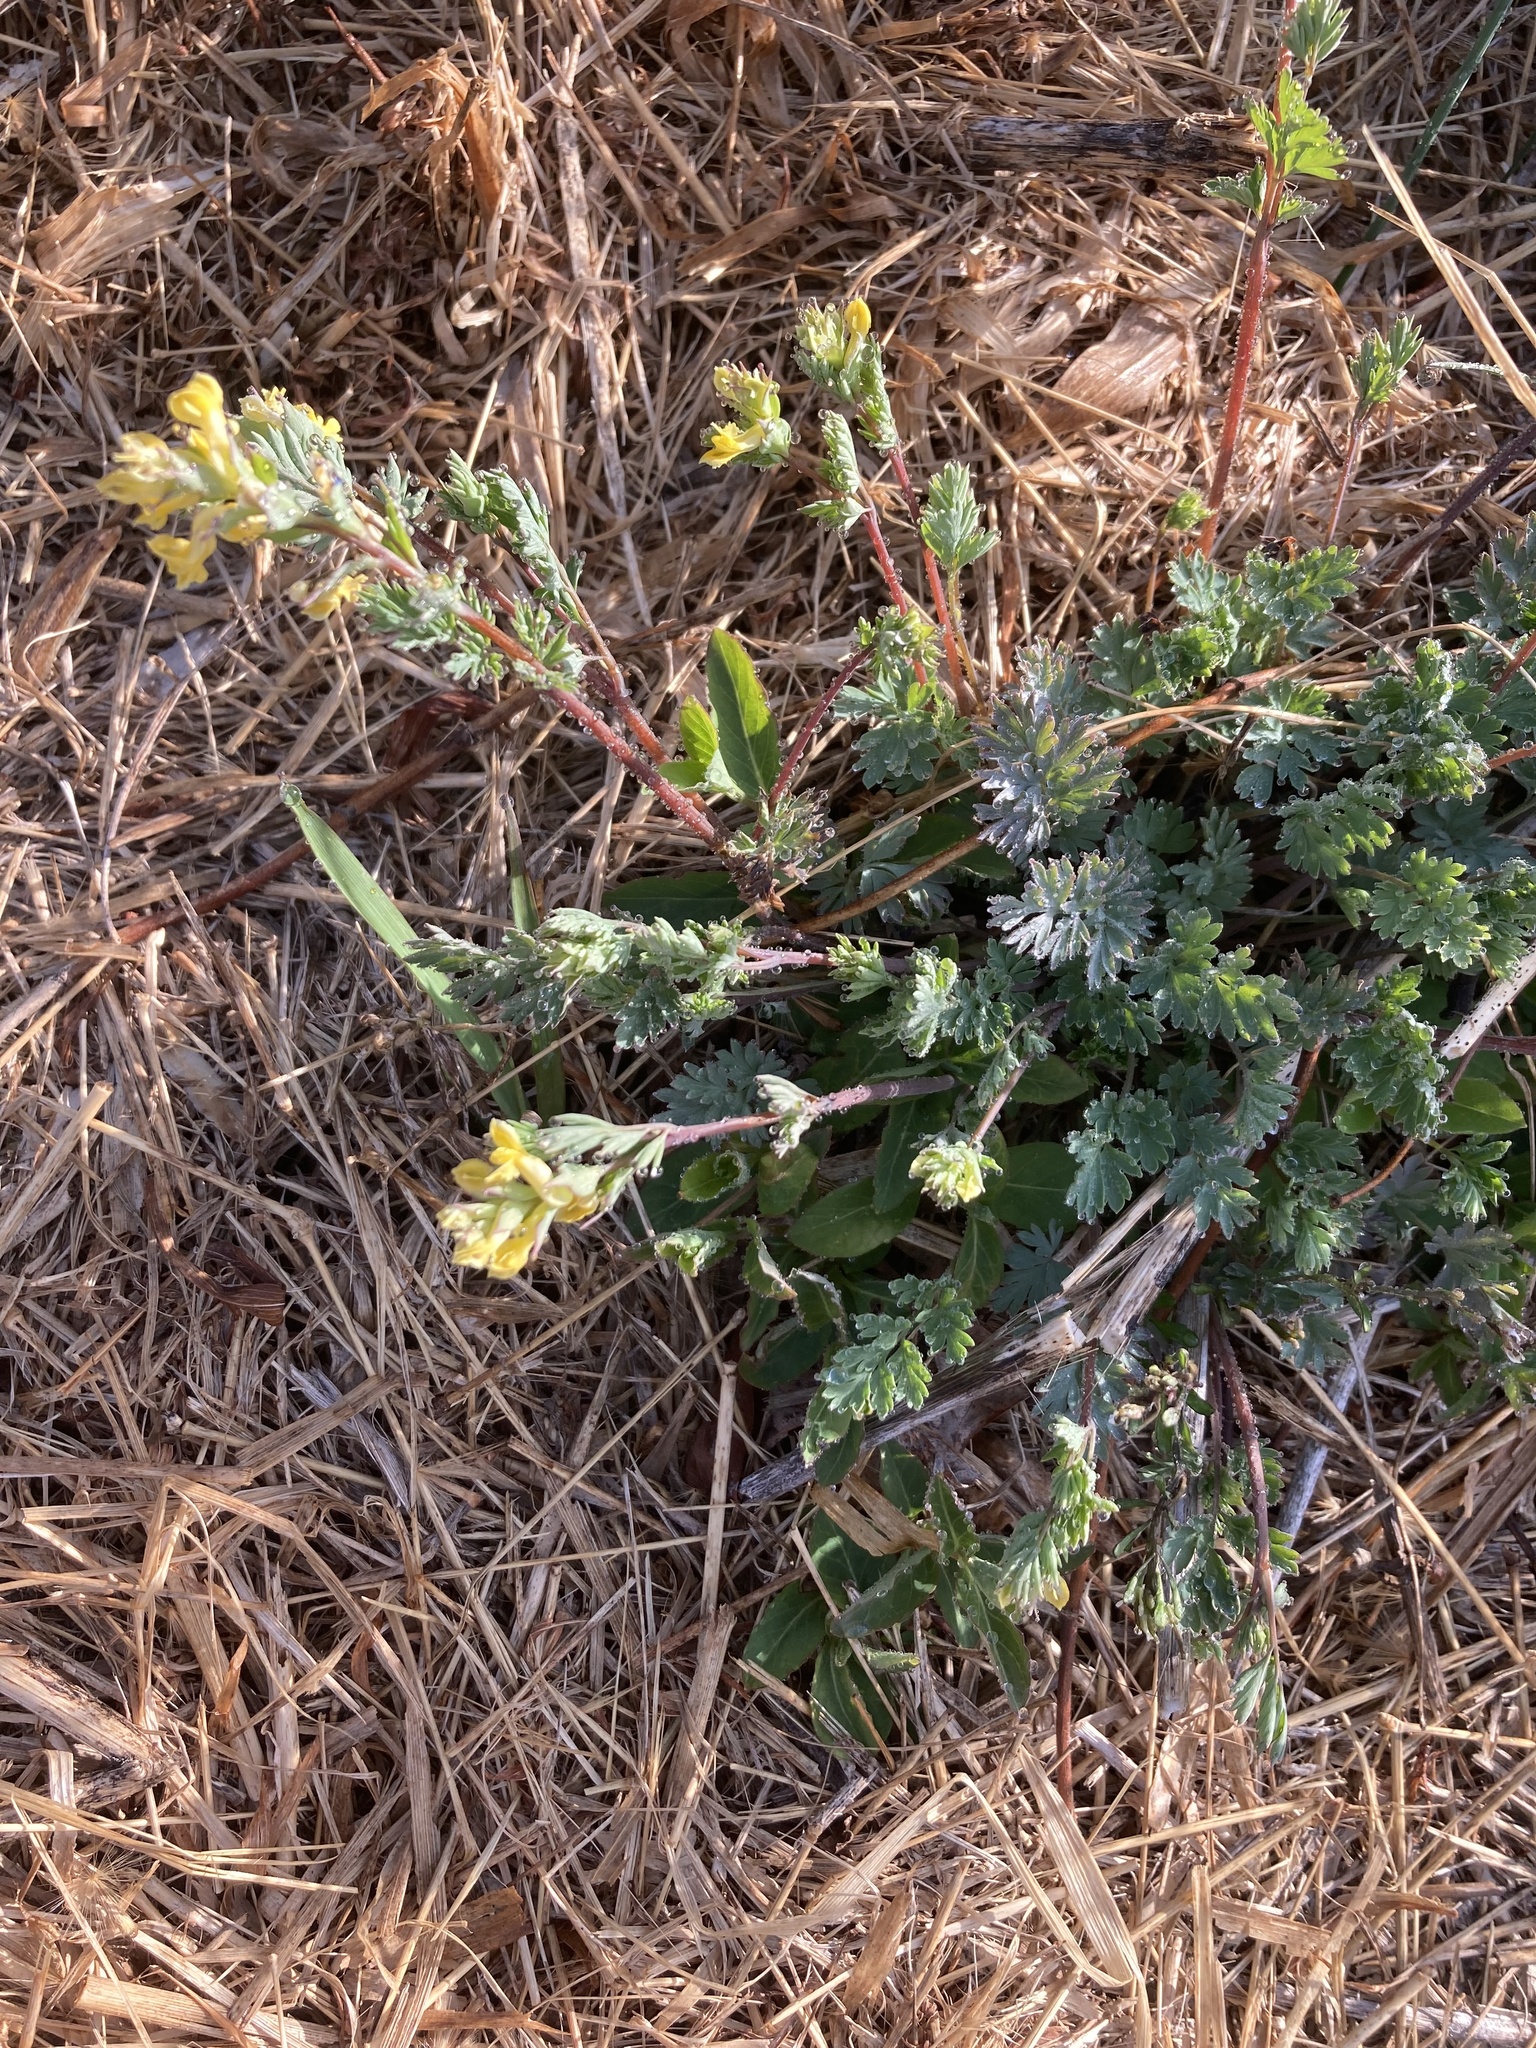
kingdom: Plantae
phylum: Tracheophyta
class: Magnoliopsida
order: Ranunculales
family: Papaveraceae
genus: Corydalis
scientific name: Corydalis flavula
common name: Yellow corydalis
